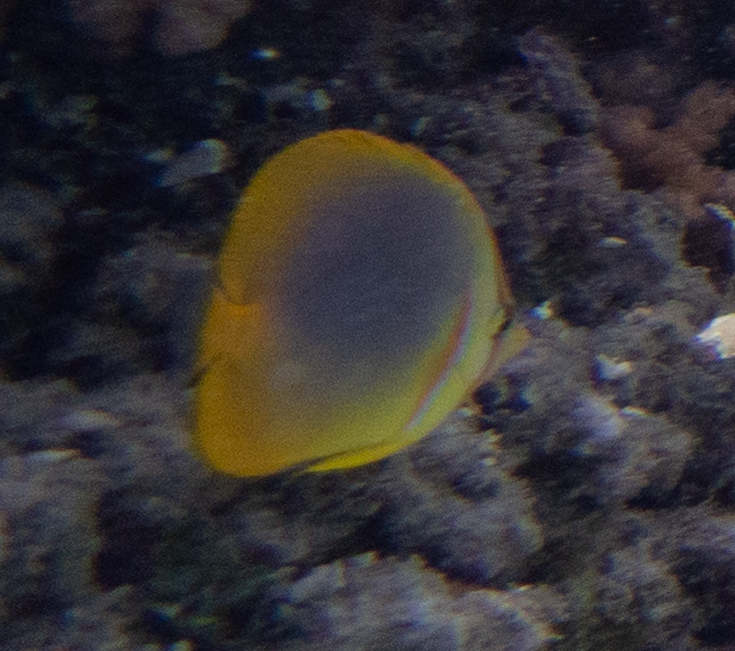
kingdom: Animalia
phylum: Chordata
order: Perciformes
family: Chaetodontidae
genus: Chaetodon
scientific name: Chaetodon aureofasciatus
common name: Golden butterflyfish
